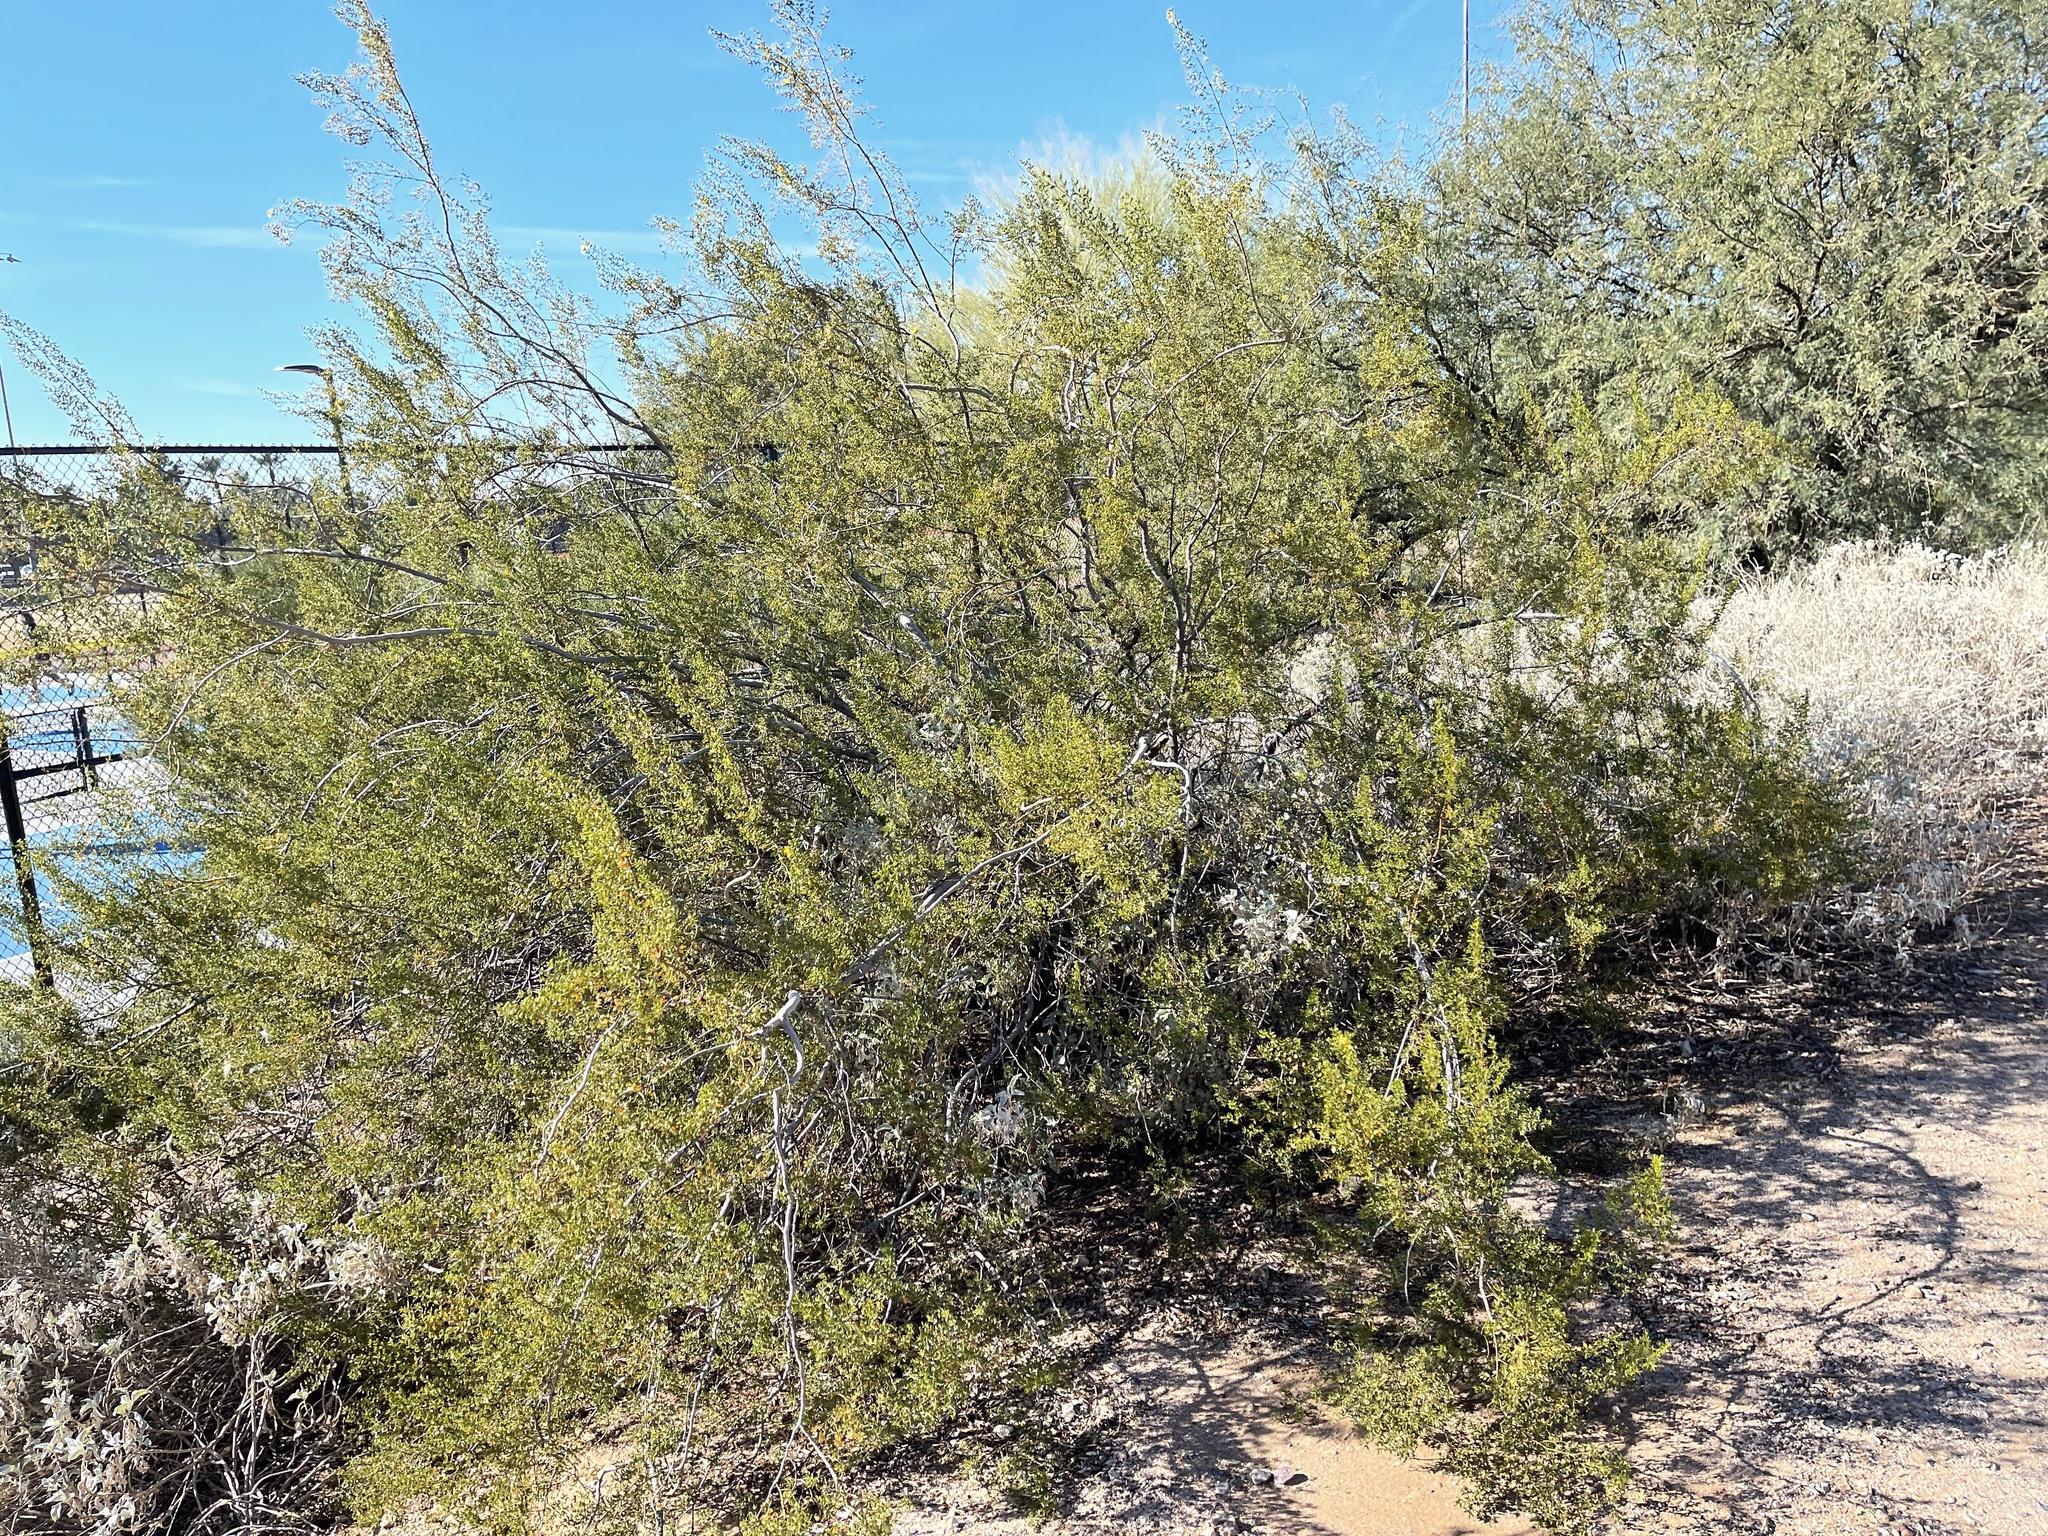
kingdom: Plantae
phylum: Tracheophyta
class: Magnoliopsida
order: Zygophyllales
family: Zygophyllaceae
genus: Larrea
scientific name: Larrea tridentata
